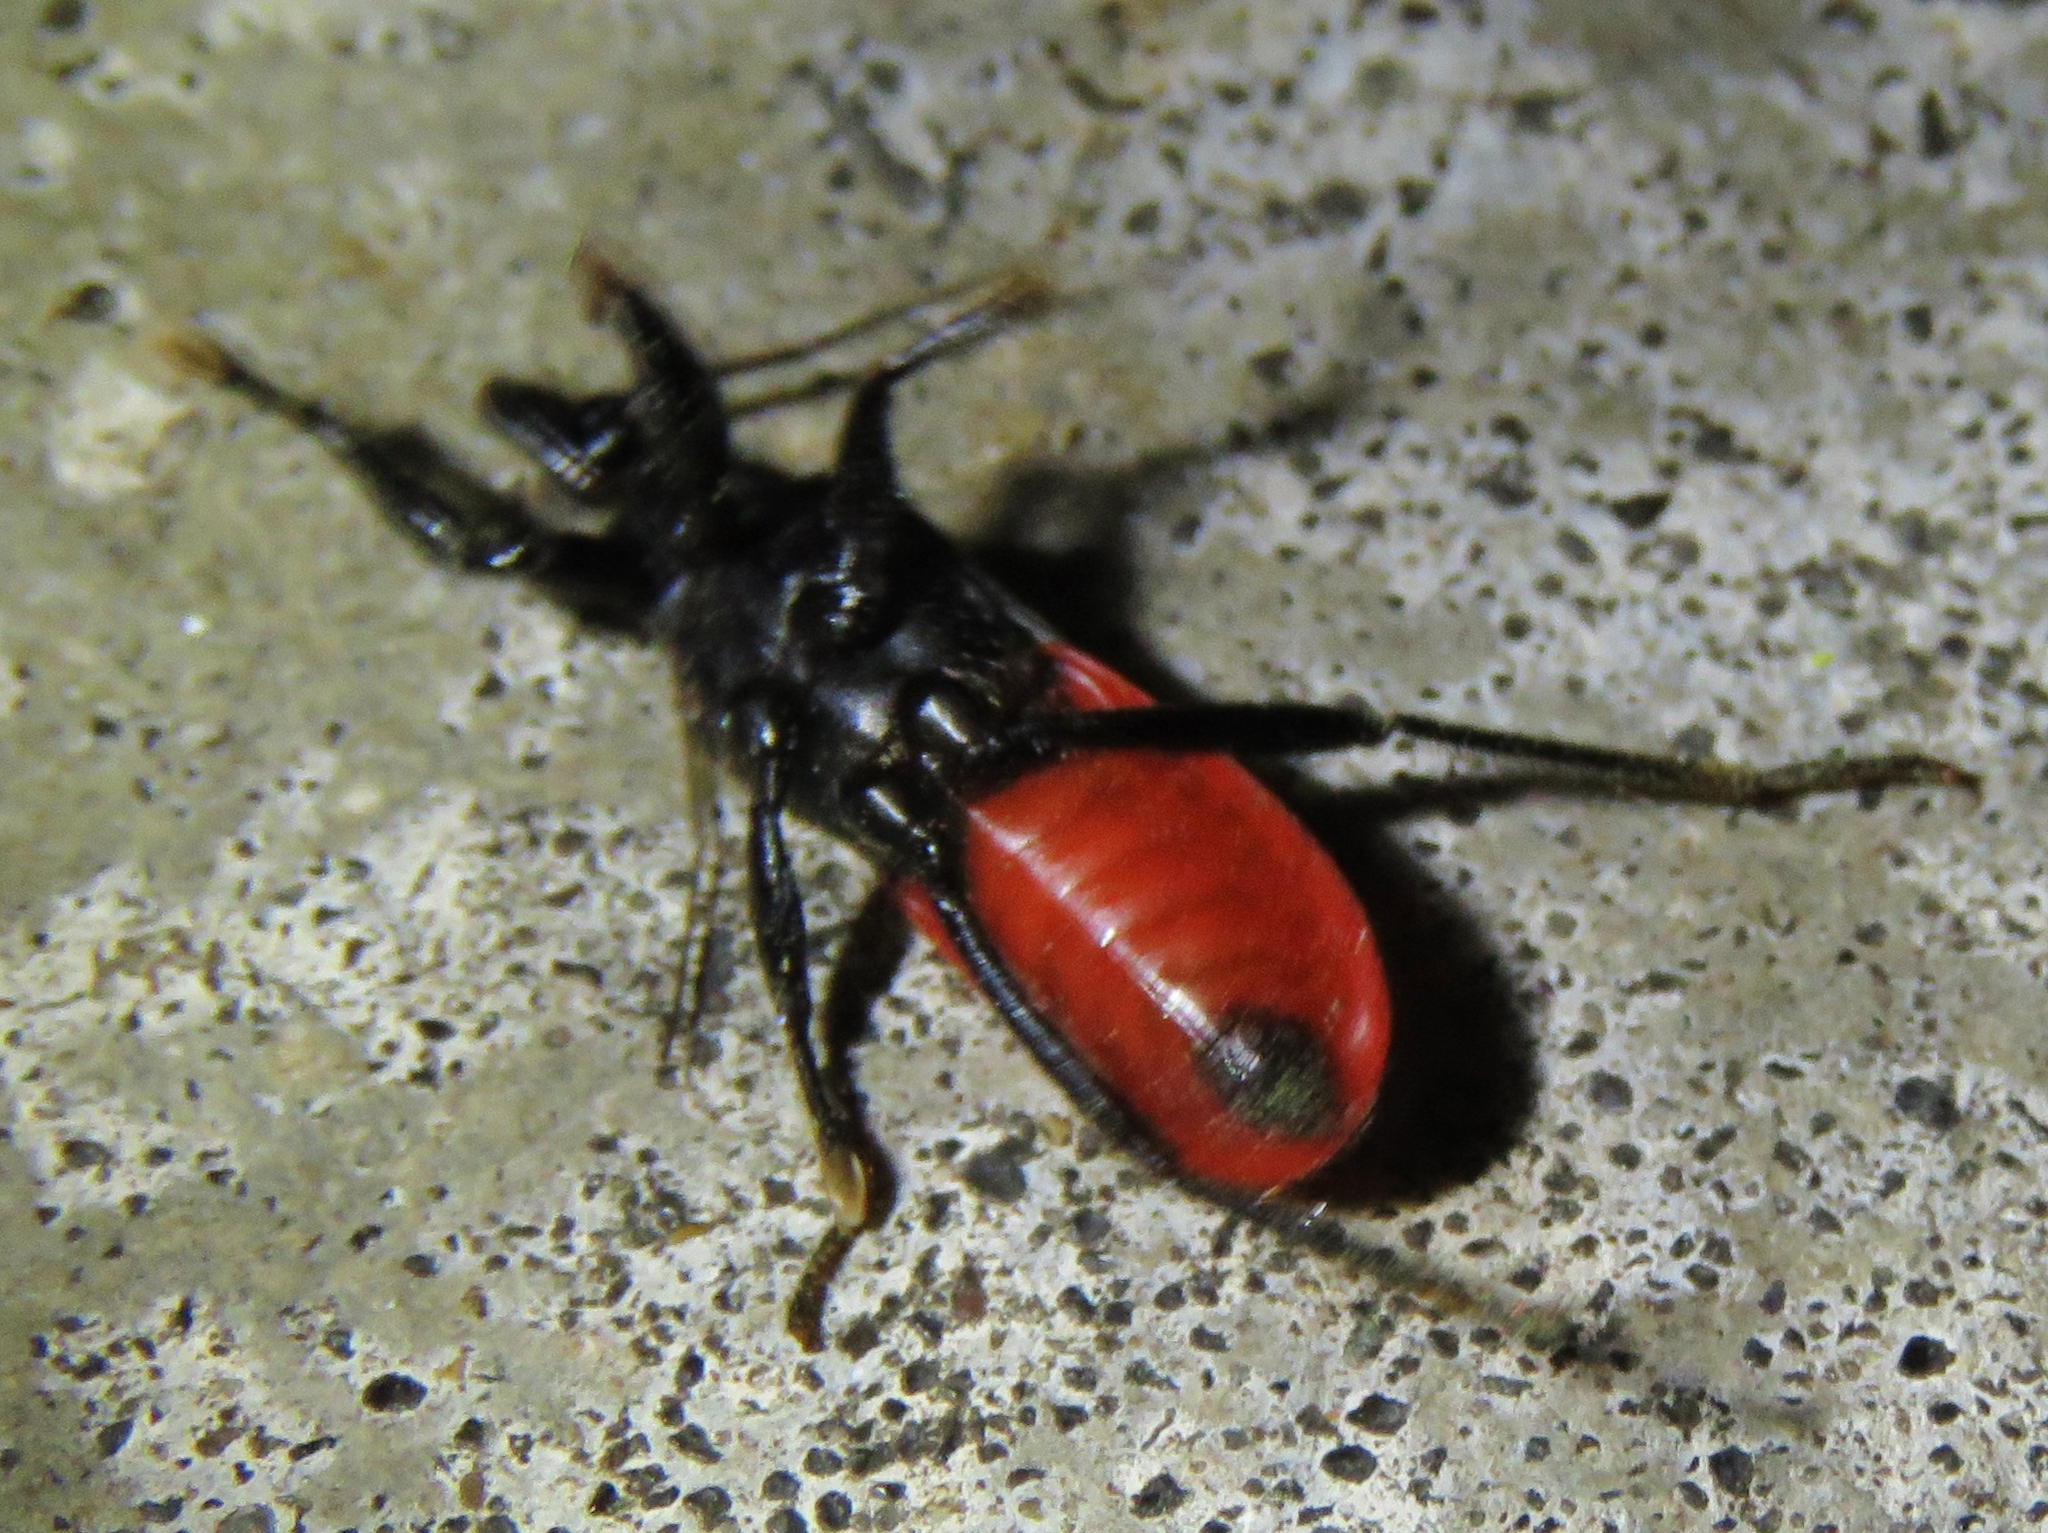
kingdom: Animalia
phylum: Arthropoda
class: Insecta
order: Hemiptera
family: Reduviidae
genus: Melanolestes
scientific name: Melanolestes picipes
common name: Assassin bug
